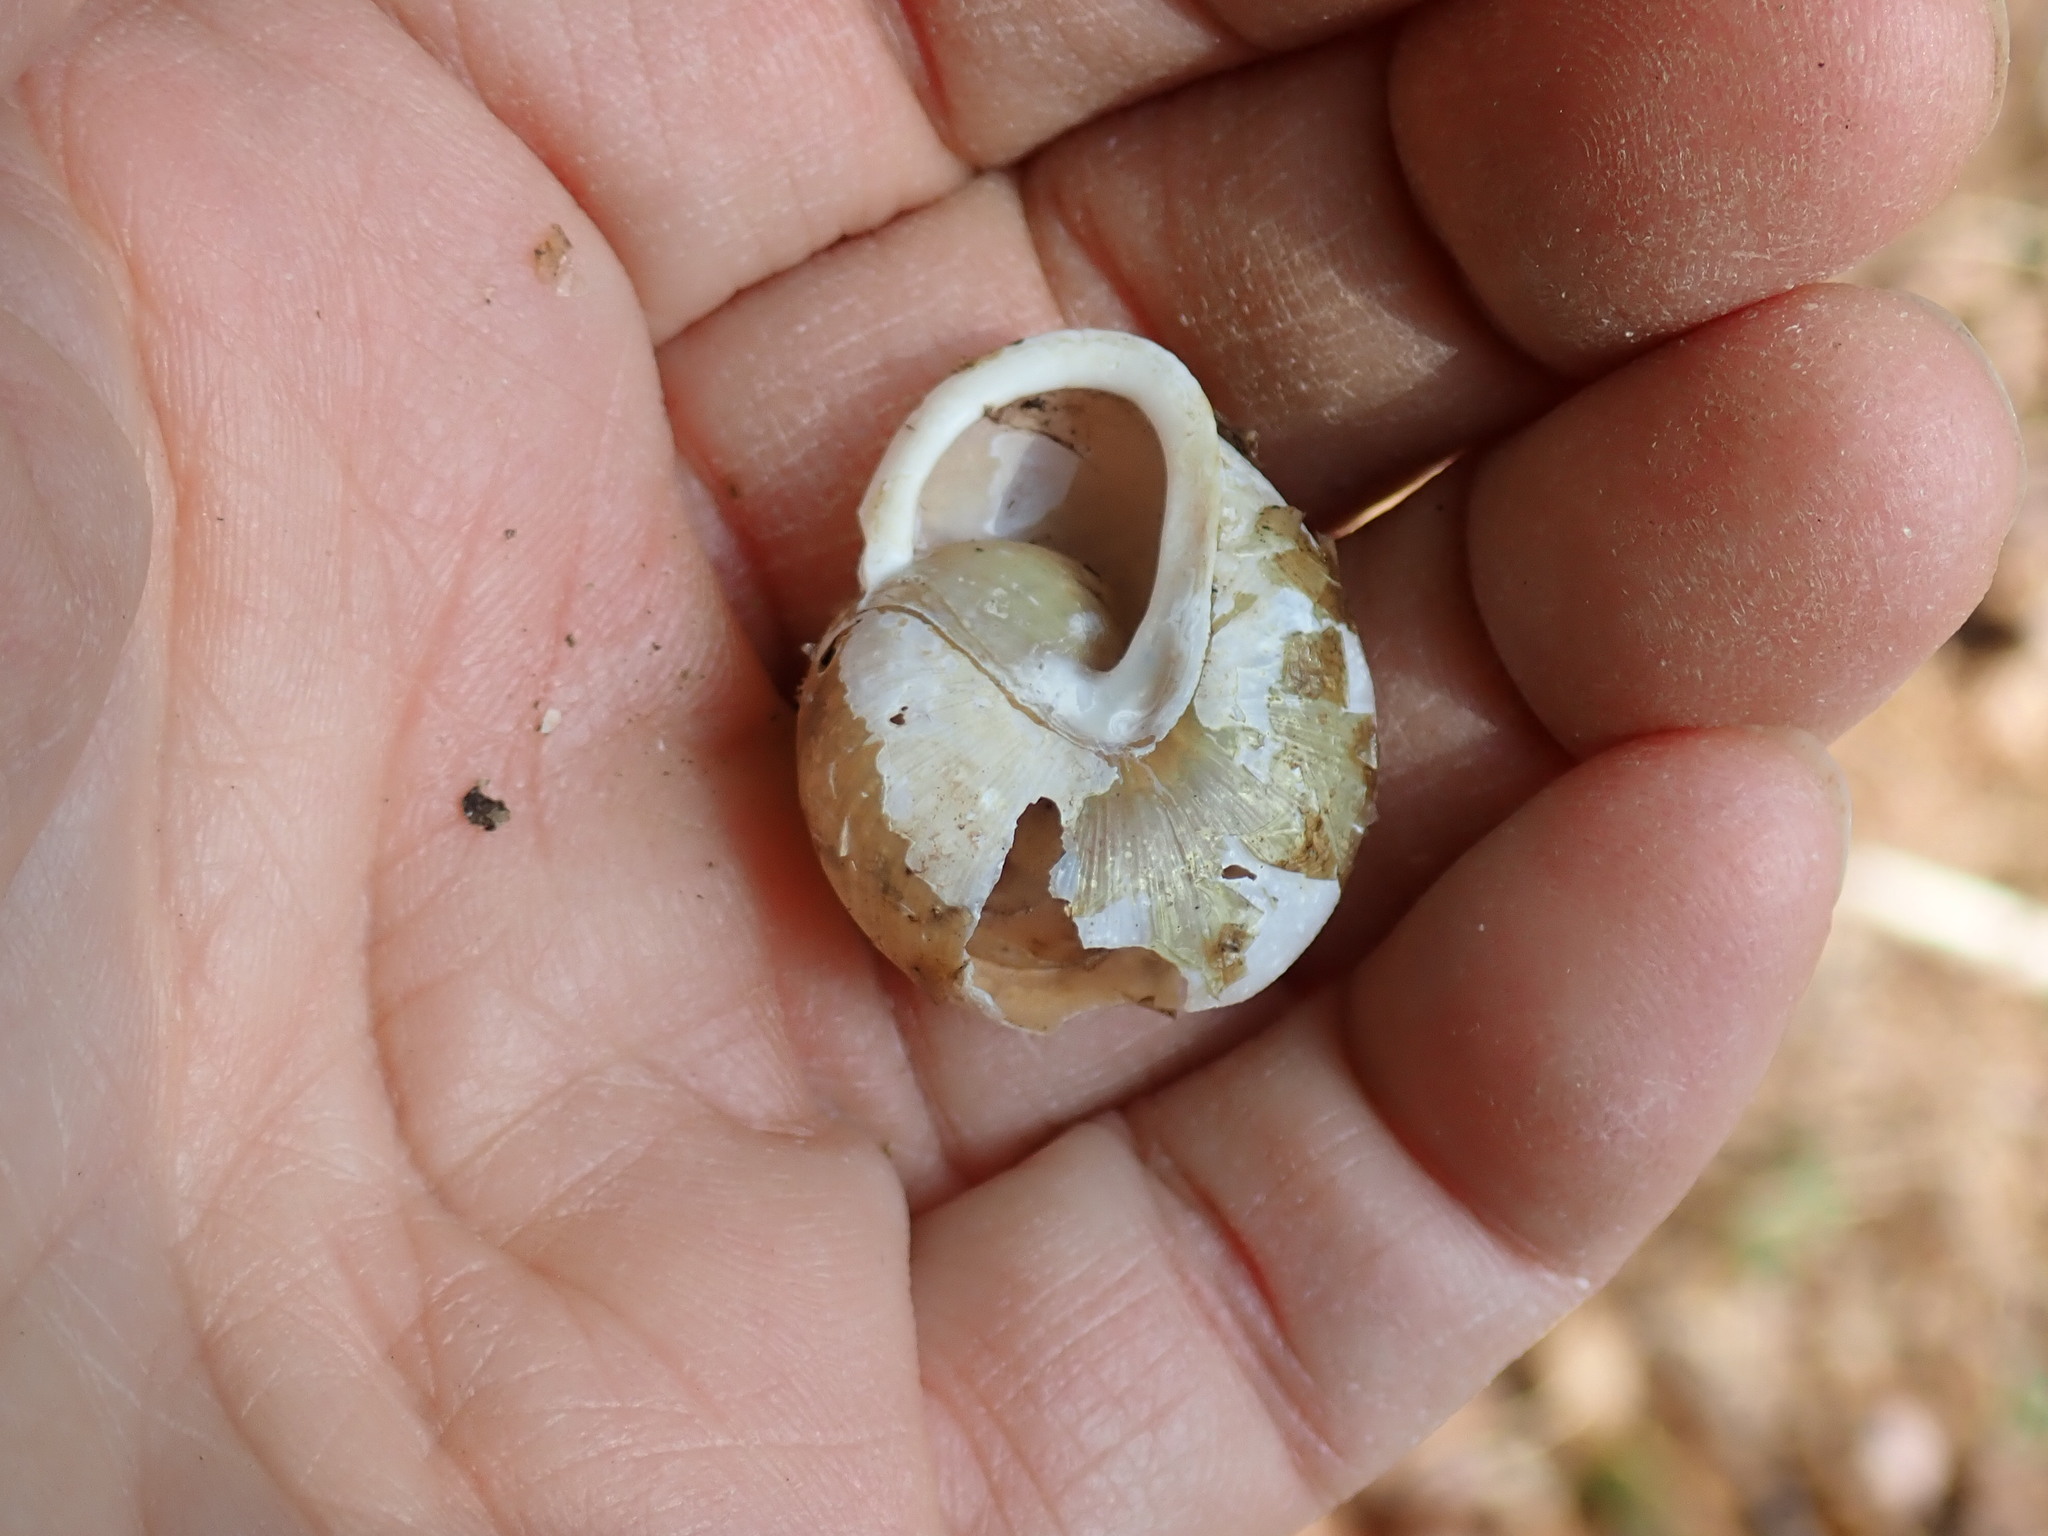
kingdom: Animalia
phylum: Mollusca
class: Gastropoda
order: Stylommatophora
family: Polygyridae
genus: Neohelix
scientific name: Neohelix albolabris
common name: Eastern whitelip
